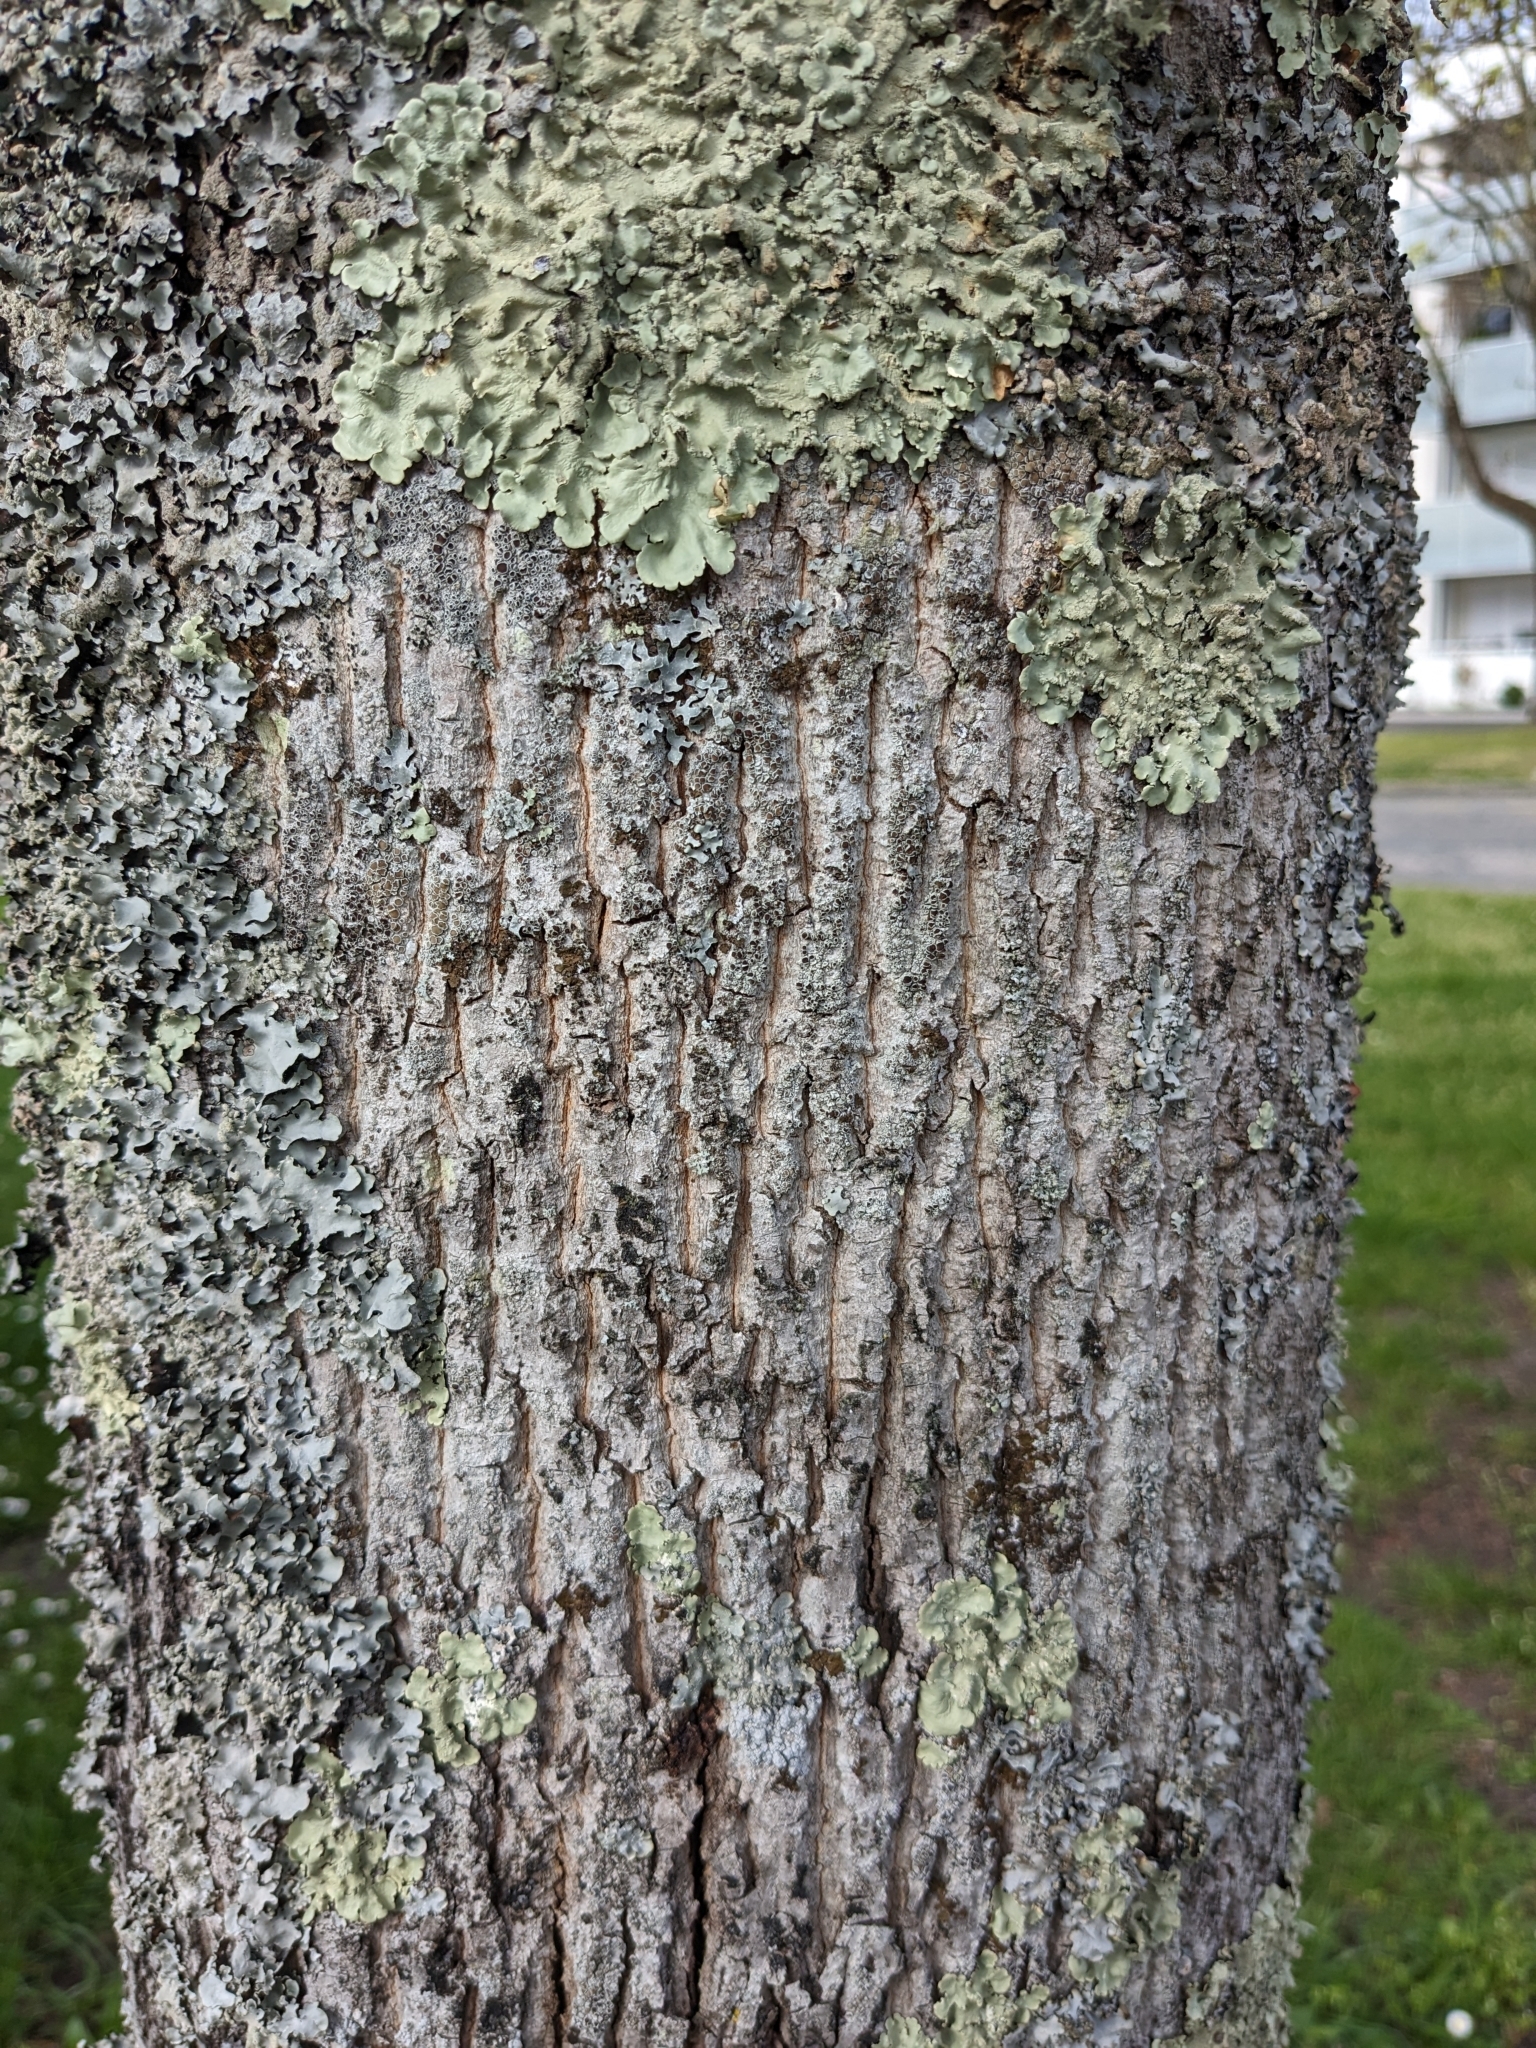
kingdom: Plantae
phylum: Tracheophyta
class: Magnoliopsida
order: Sapindales
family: Sapindaceae
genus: Acer
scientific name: Acer platanoides
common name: Norway maple
